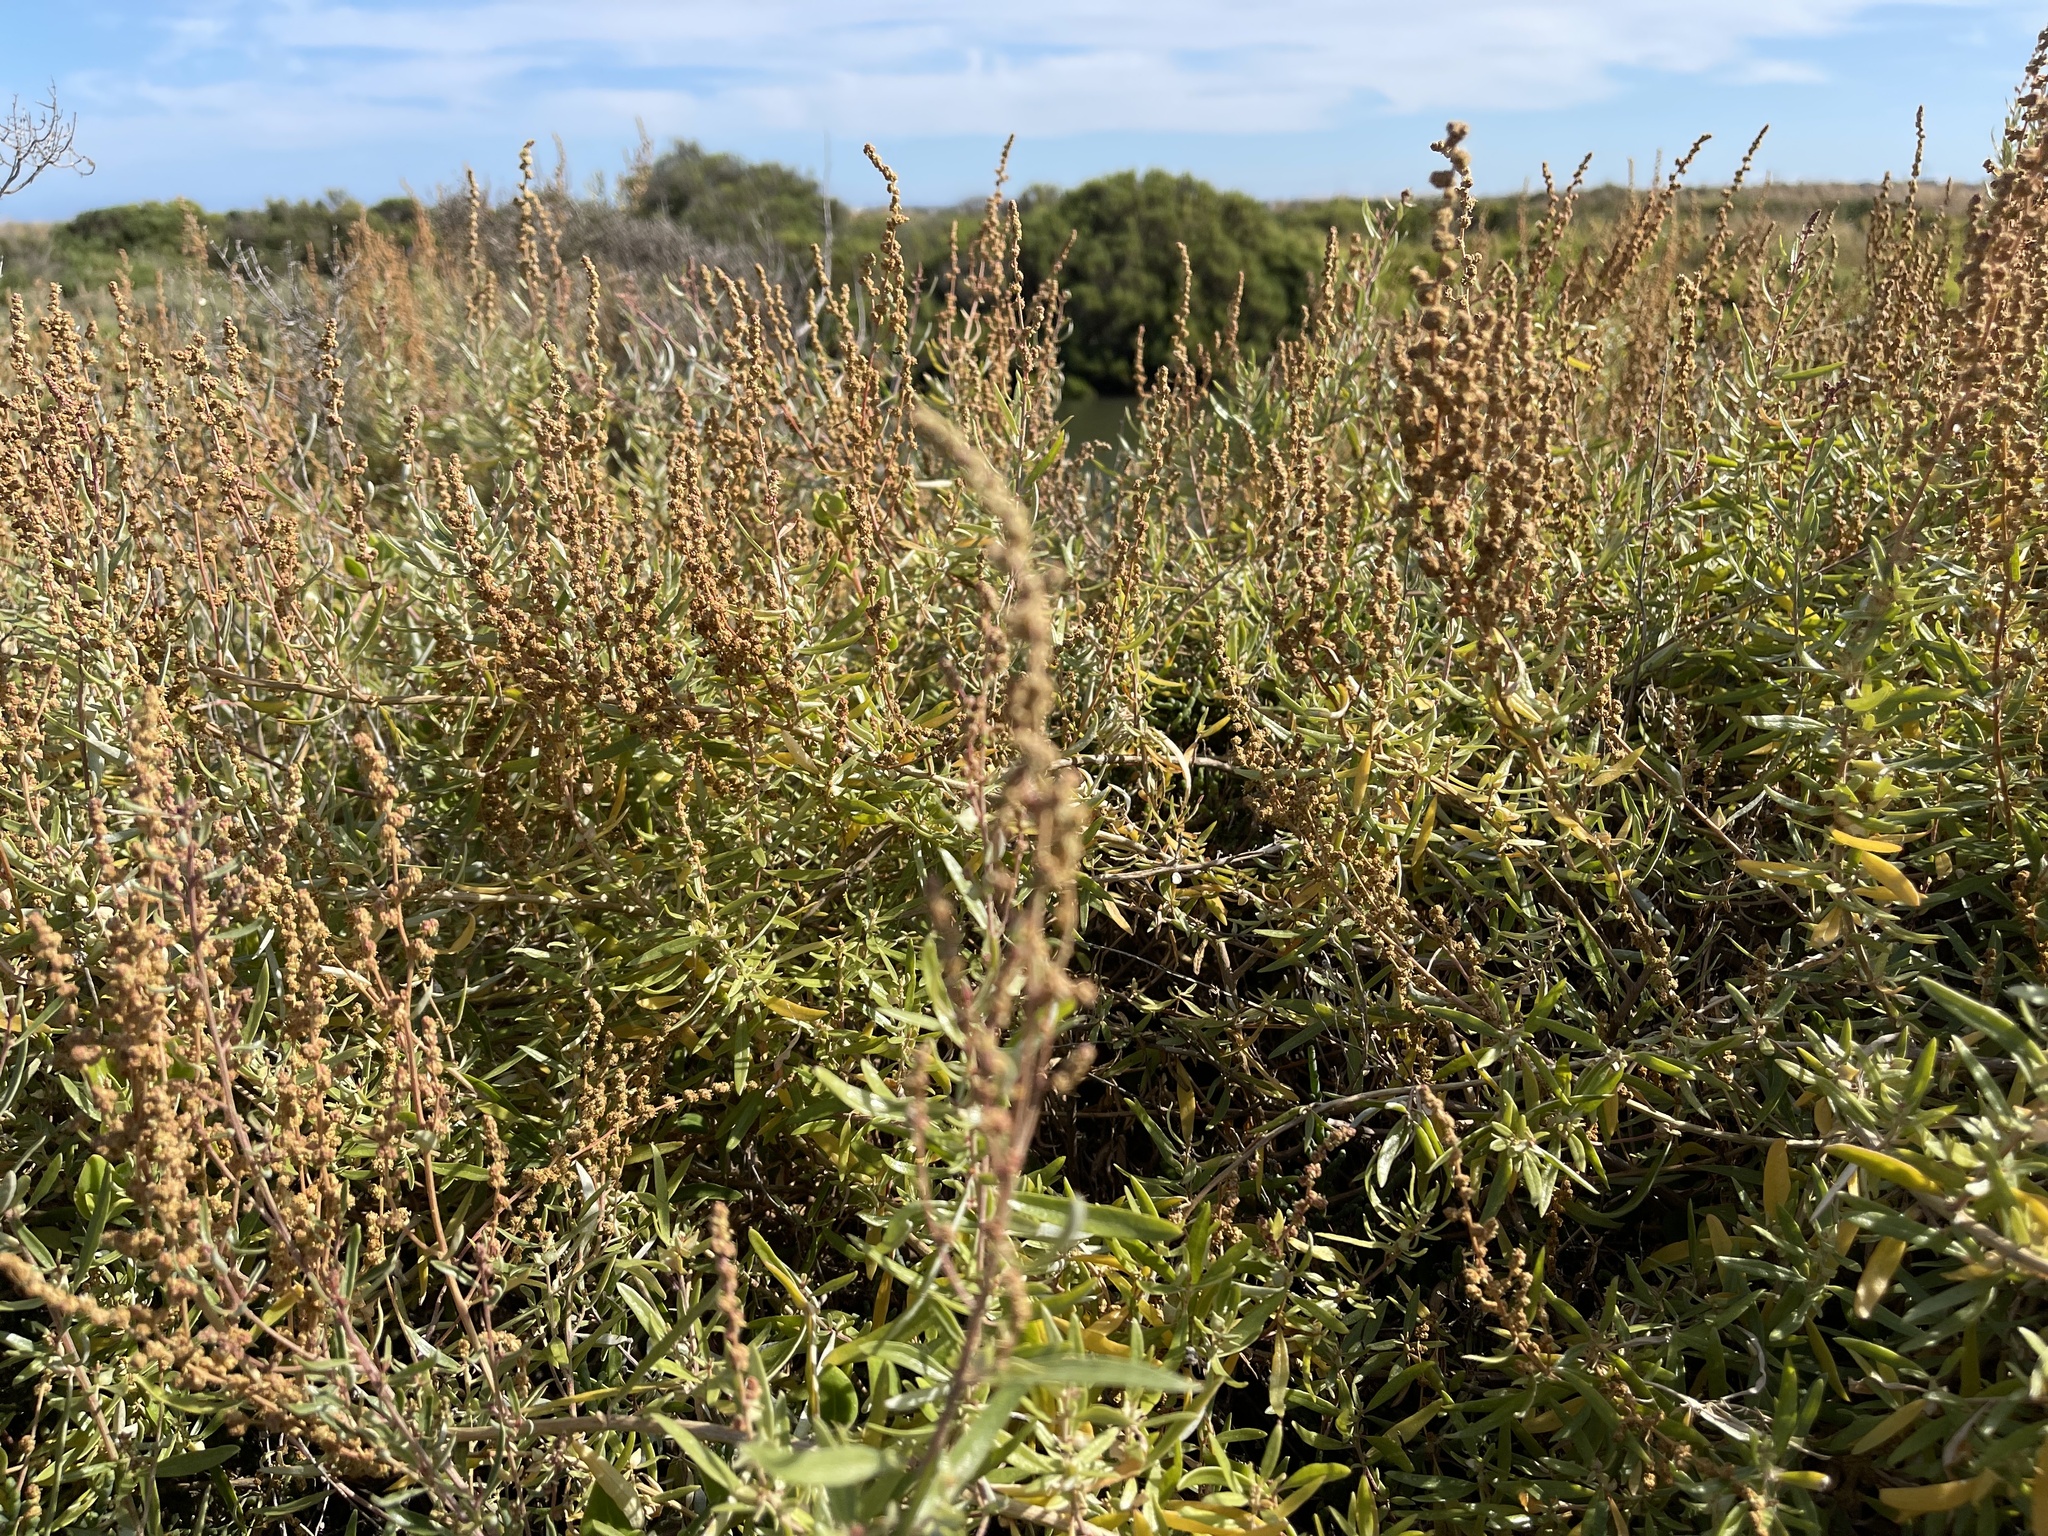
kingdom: Plantae
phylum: Tracheophyta
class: Magnoliopsida
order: Caryophyllales
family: Amaranthaceae
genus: Atriplex
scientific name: Atriplex paludosa
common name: Marsh saltbush
